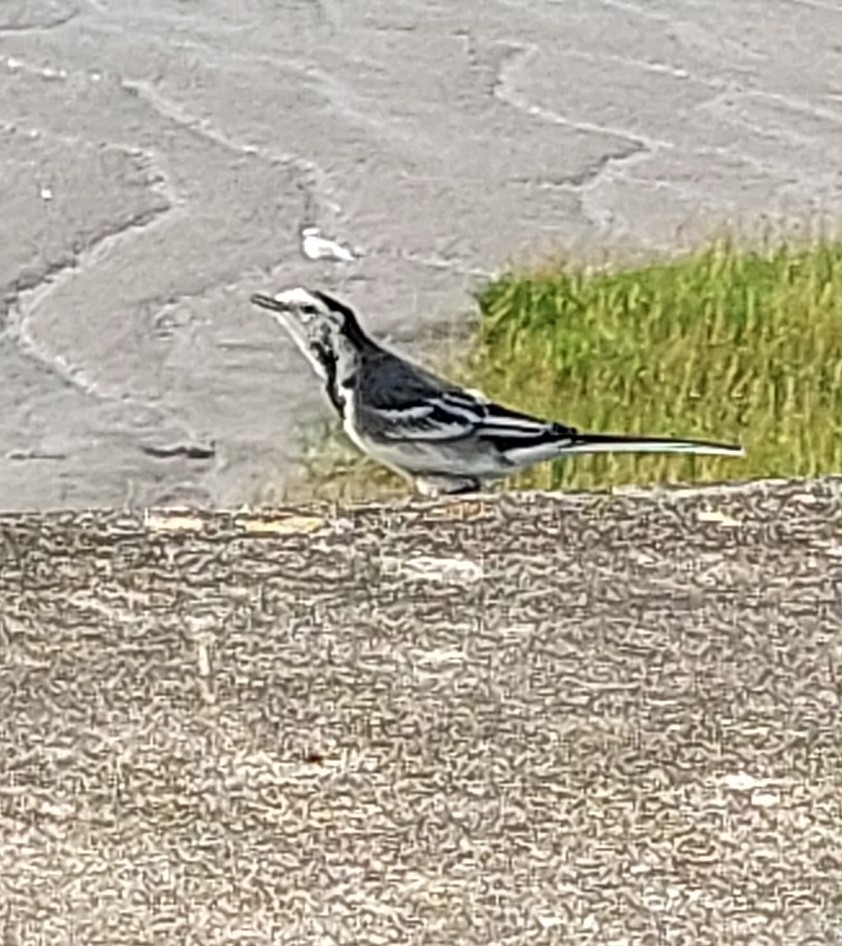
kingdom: Animalia
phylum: Chordata
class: Aves
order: Passeriformes
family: Motacillidae
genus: Motacilla
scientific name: Motacilla alba
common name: White wagtail
